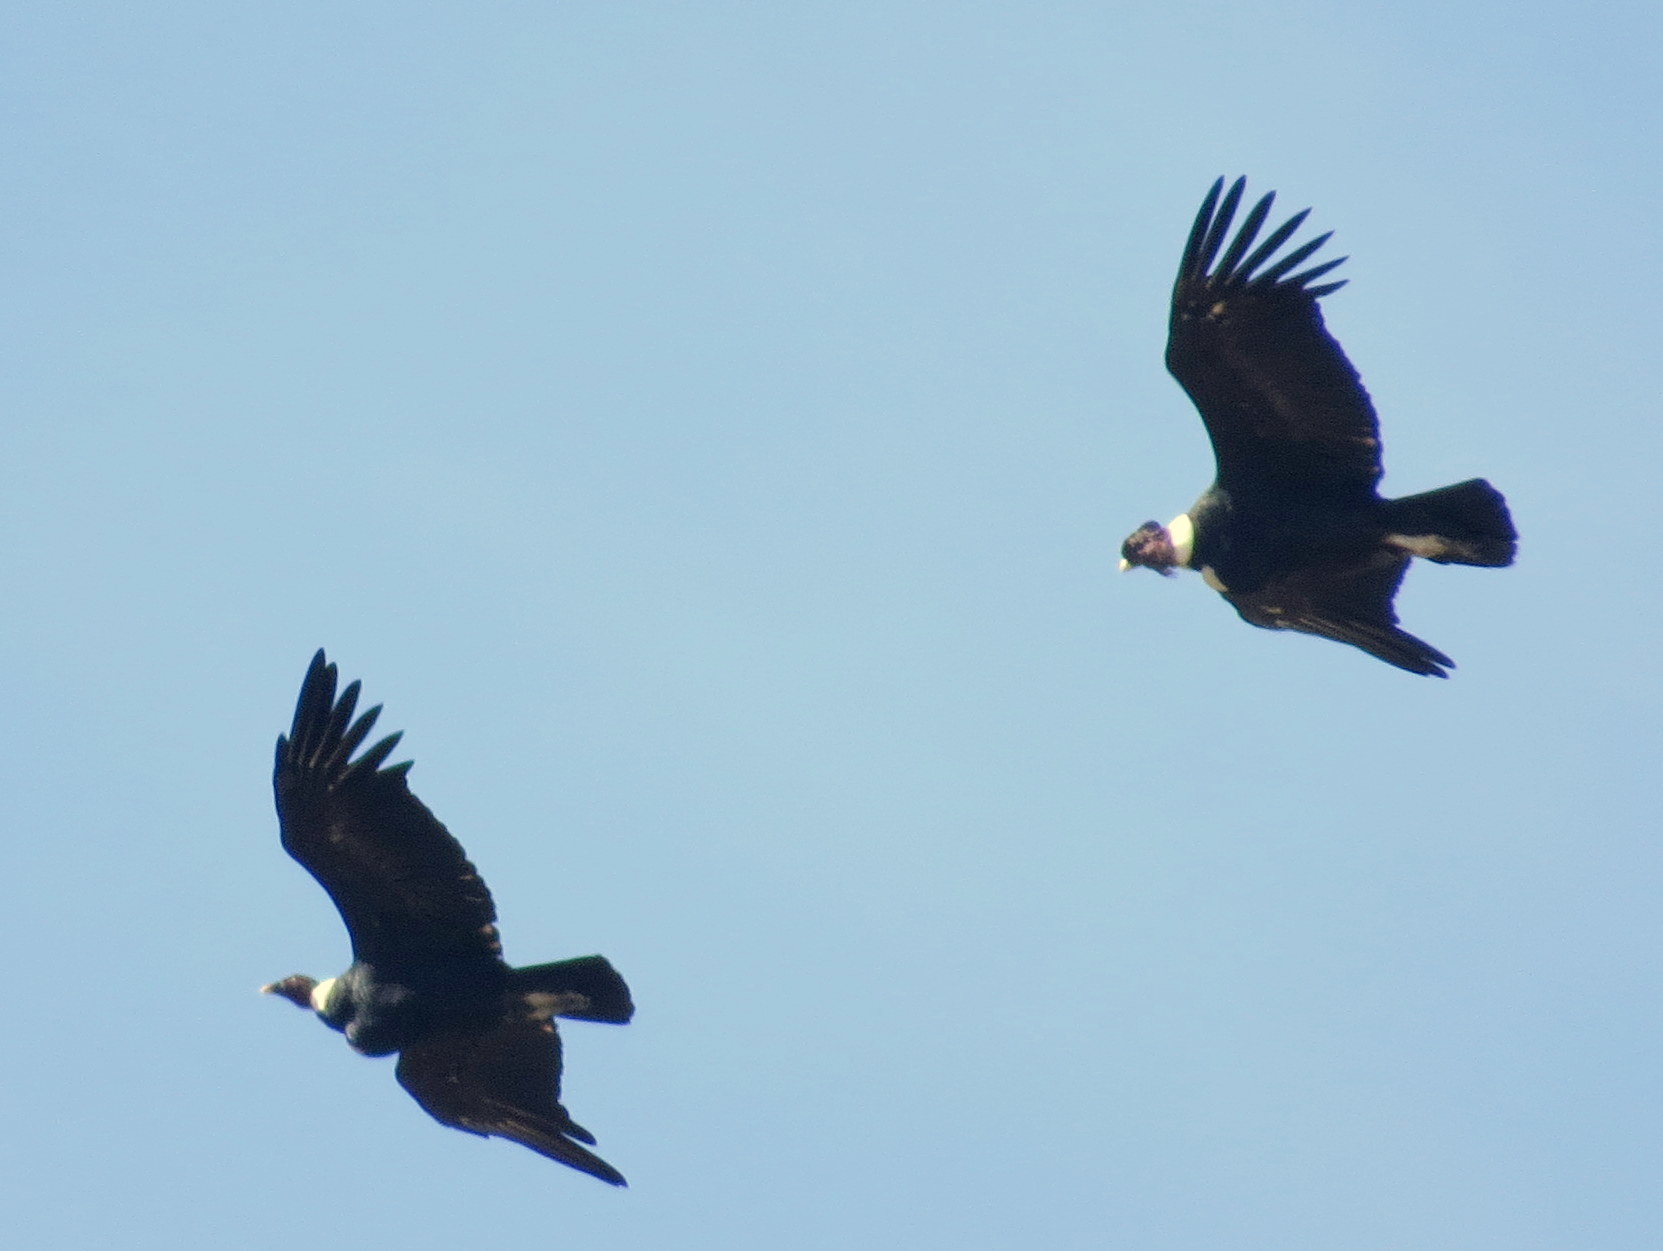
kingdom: Animalia
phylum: Chordata
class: Aves
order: Accipitriformes
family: Cathartidae
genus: Vultur
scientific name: Vultur gryphus
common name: Andean condor
